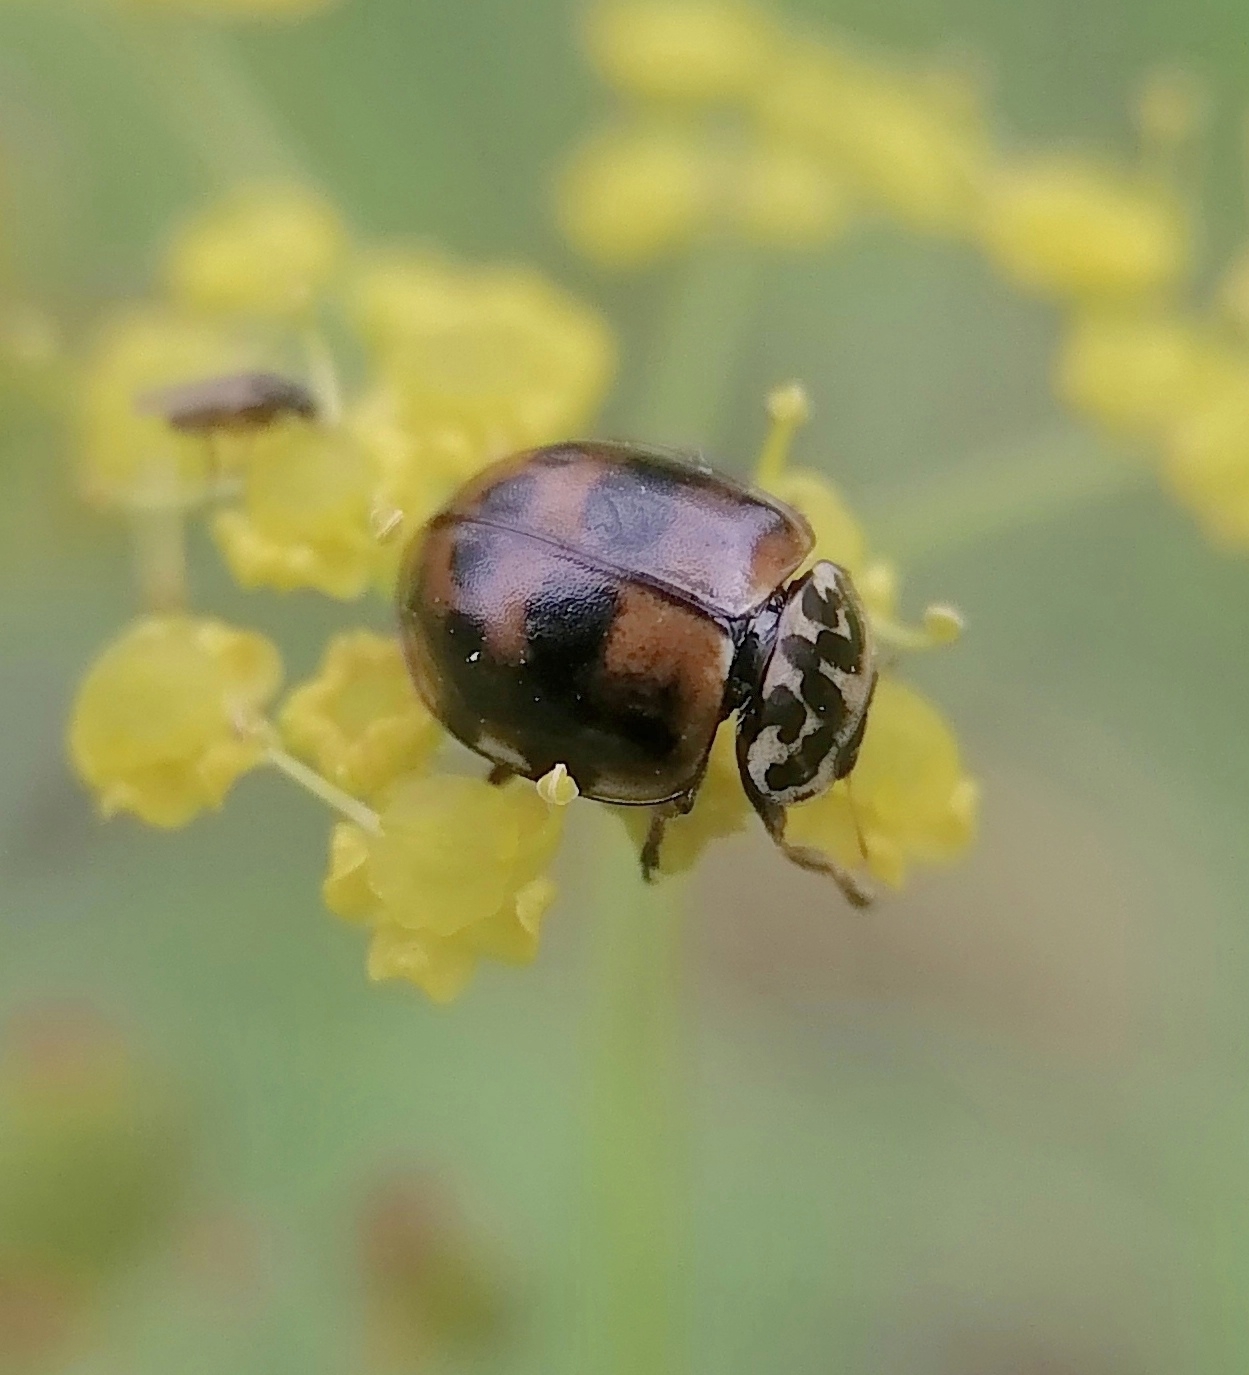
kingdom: Animalia
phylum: Arthropoda
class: Insecta
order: Coleoptera
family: Coccinellidae
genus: Harmonia
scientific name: Harmonia quadripunctata
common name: Cream-streaked ladybird
